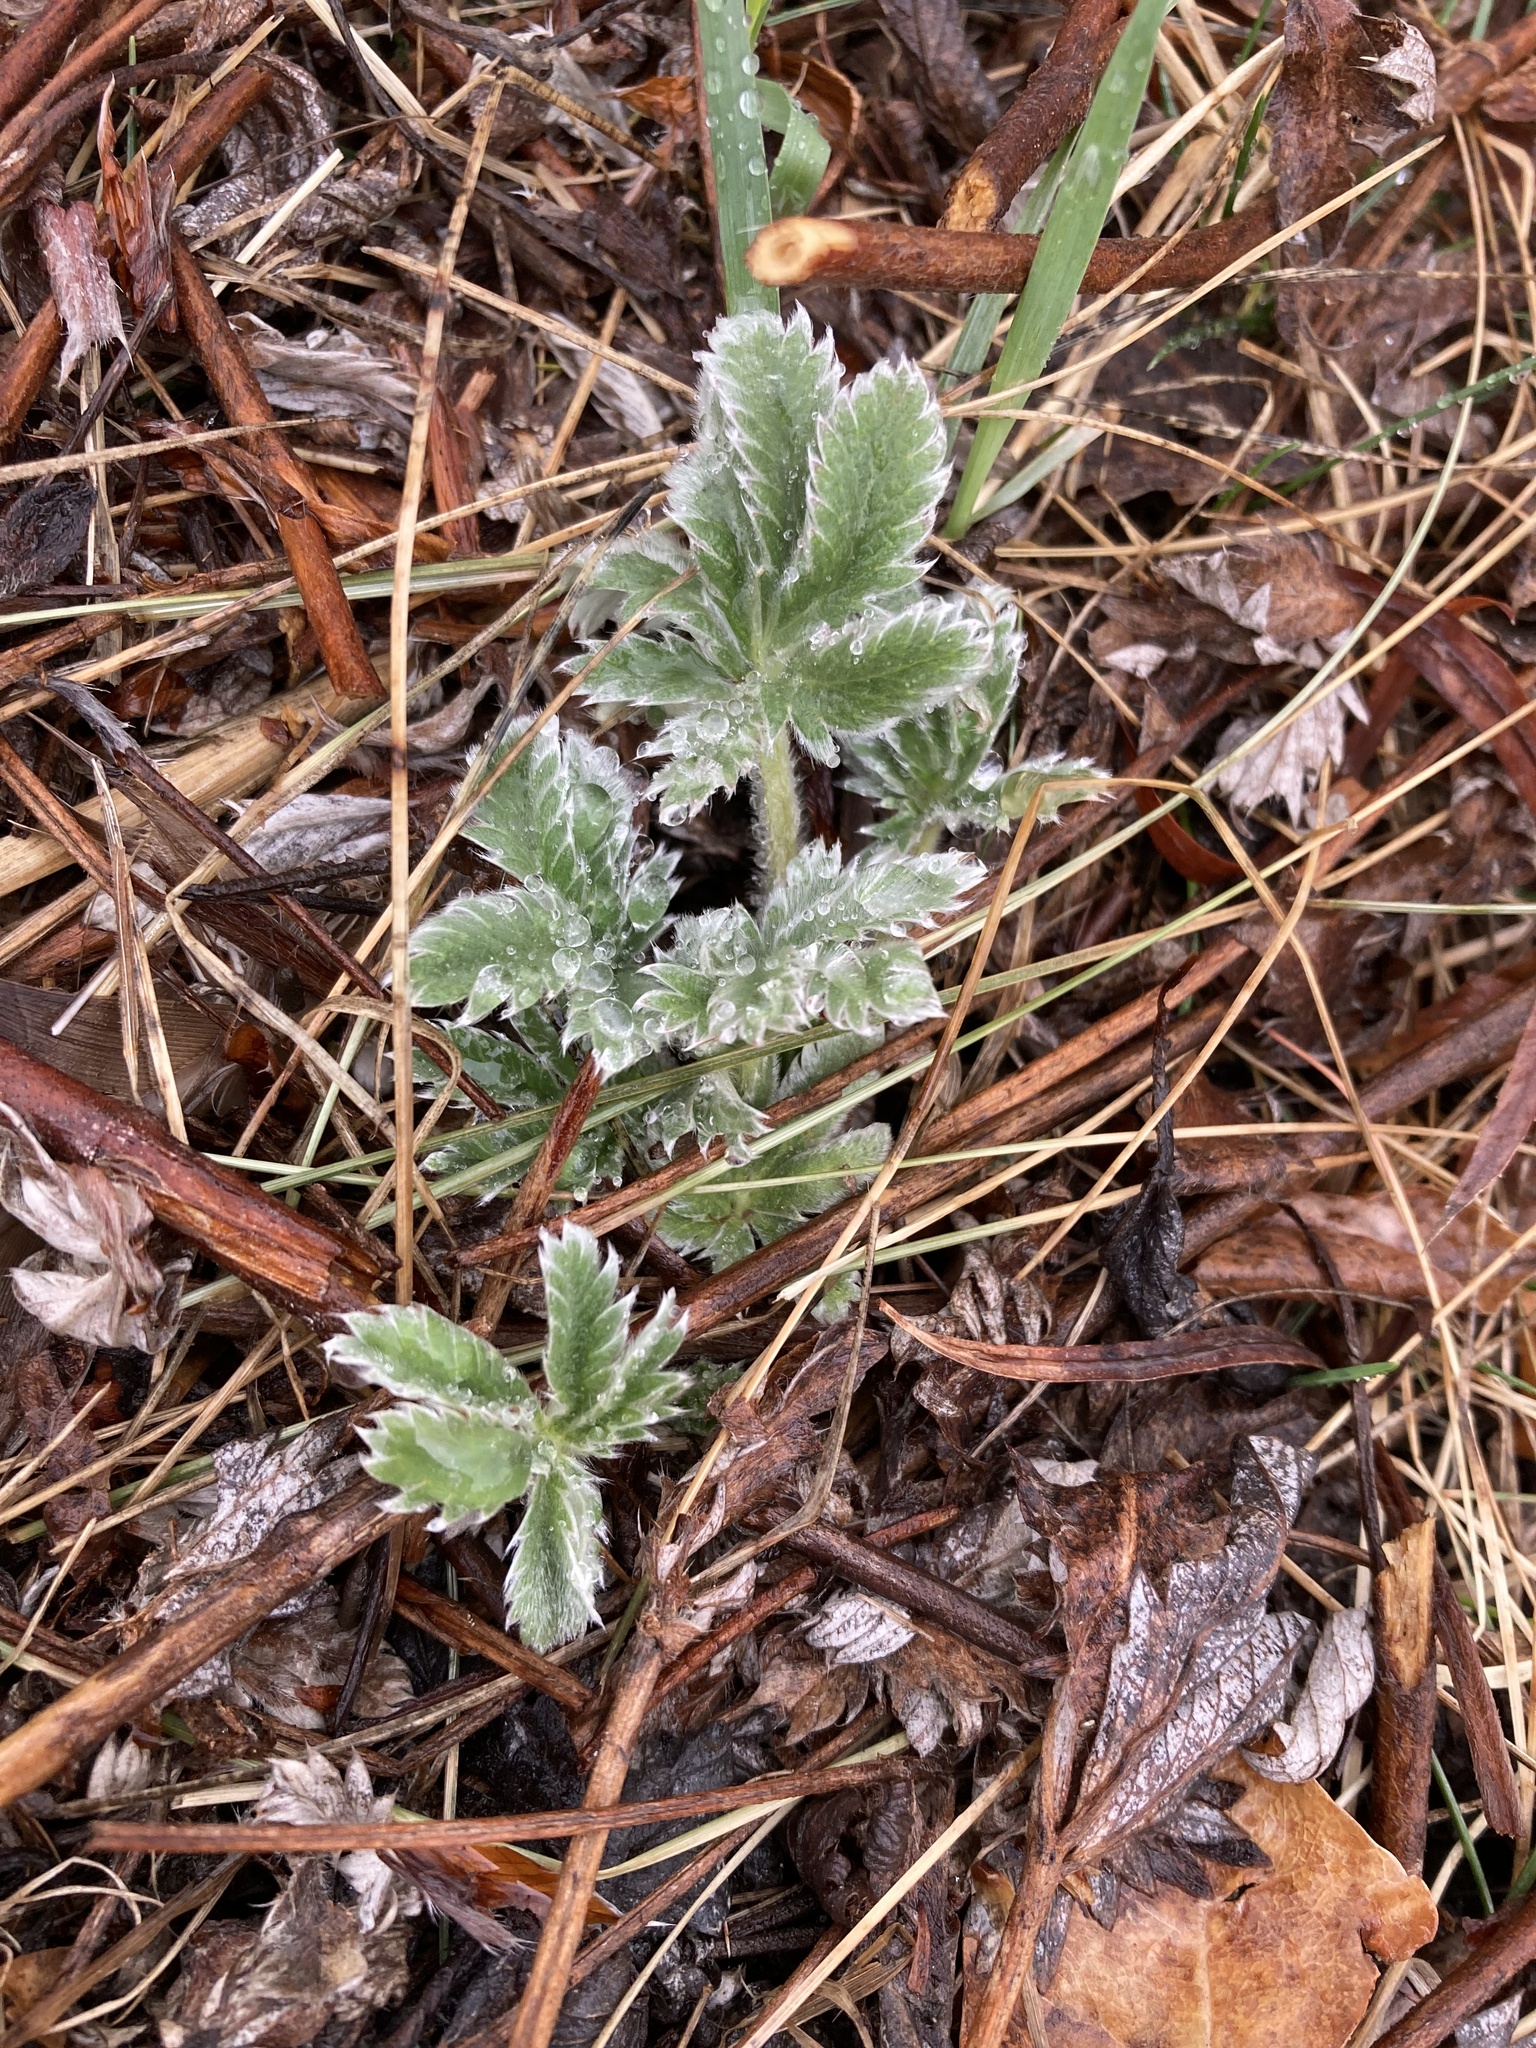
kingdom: Plantae
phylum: Tracheophyta
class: Magnoliopsida
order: Rosales
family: Rosaceae
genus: Potentilla
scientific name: Potentilla pulcherrima
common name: Beautiful cinquefoil
